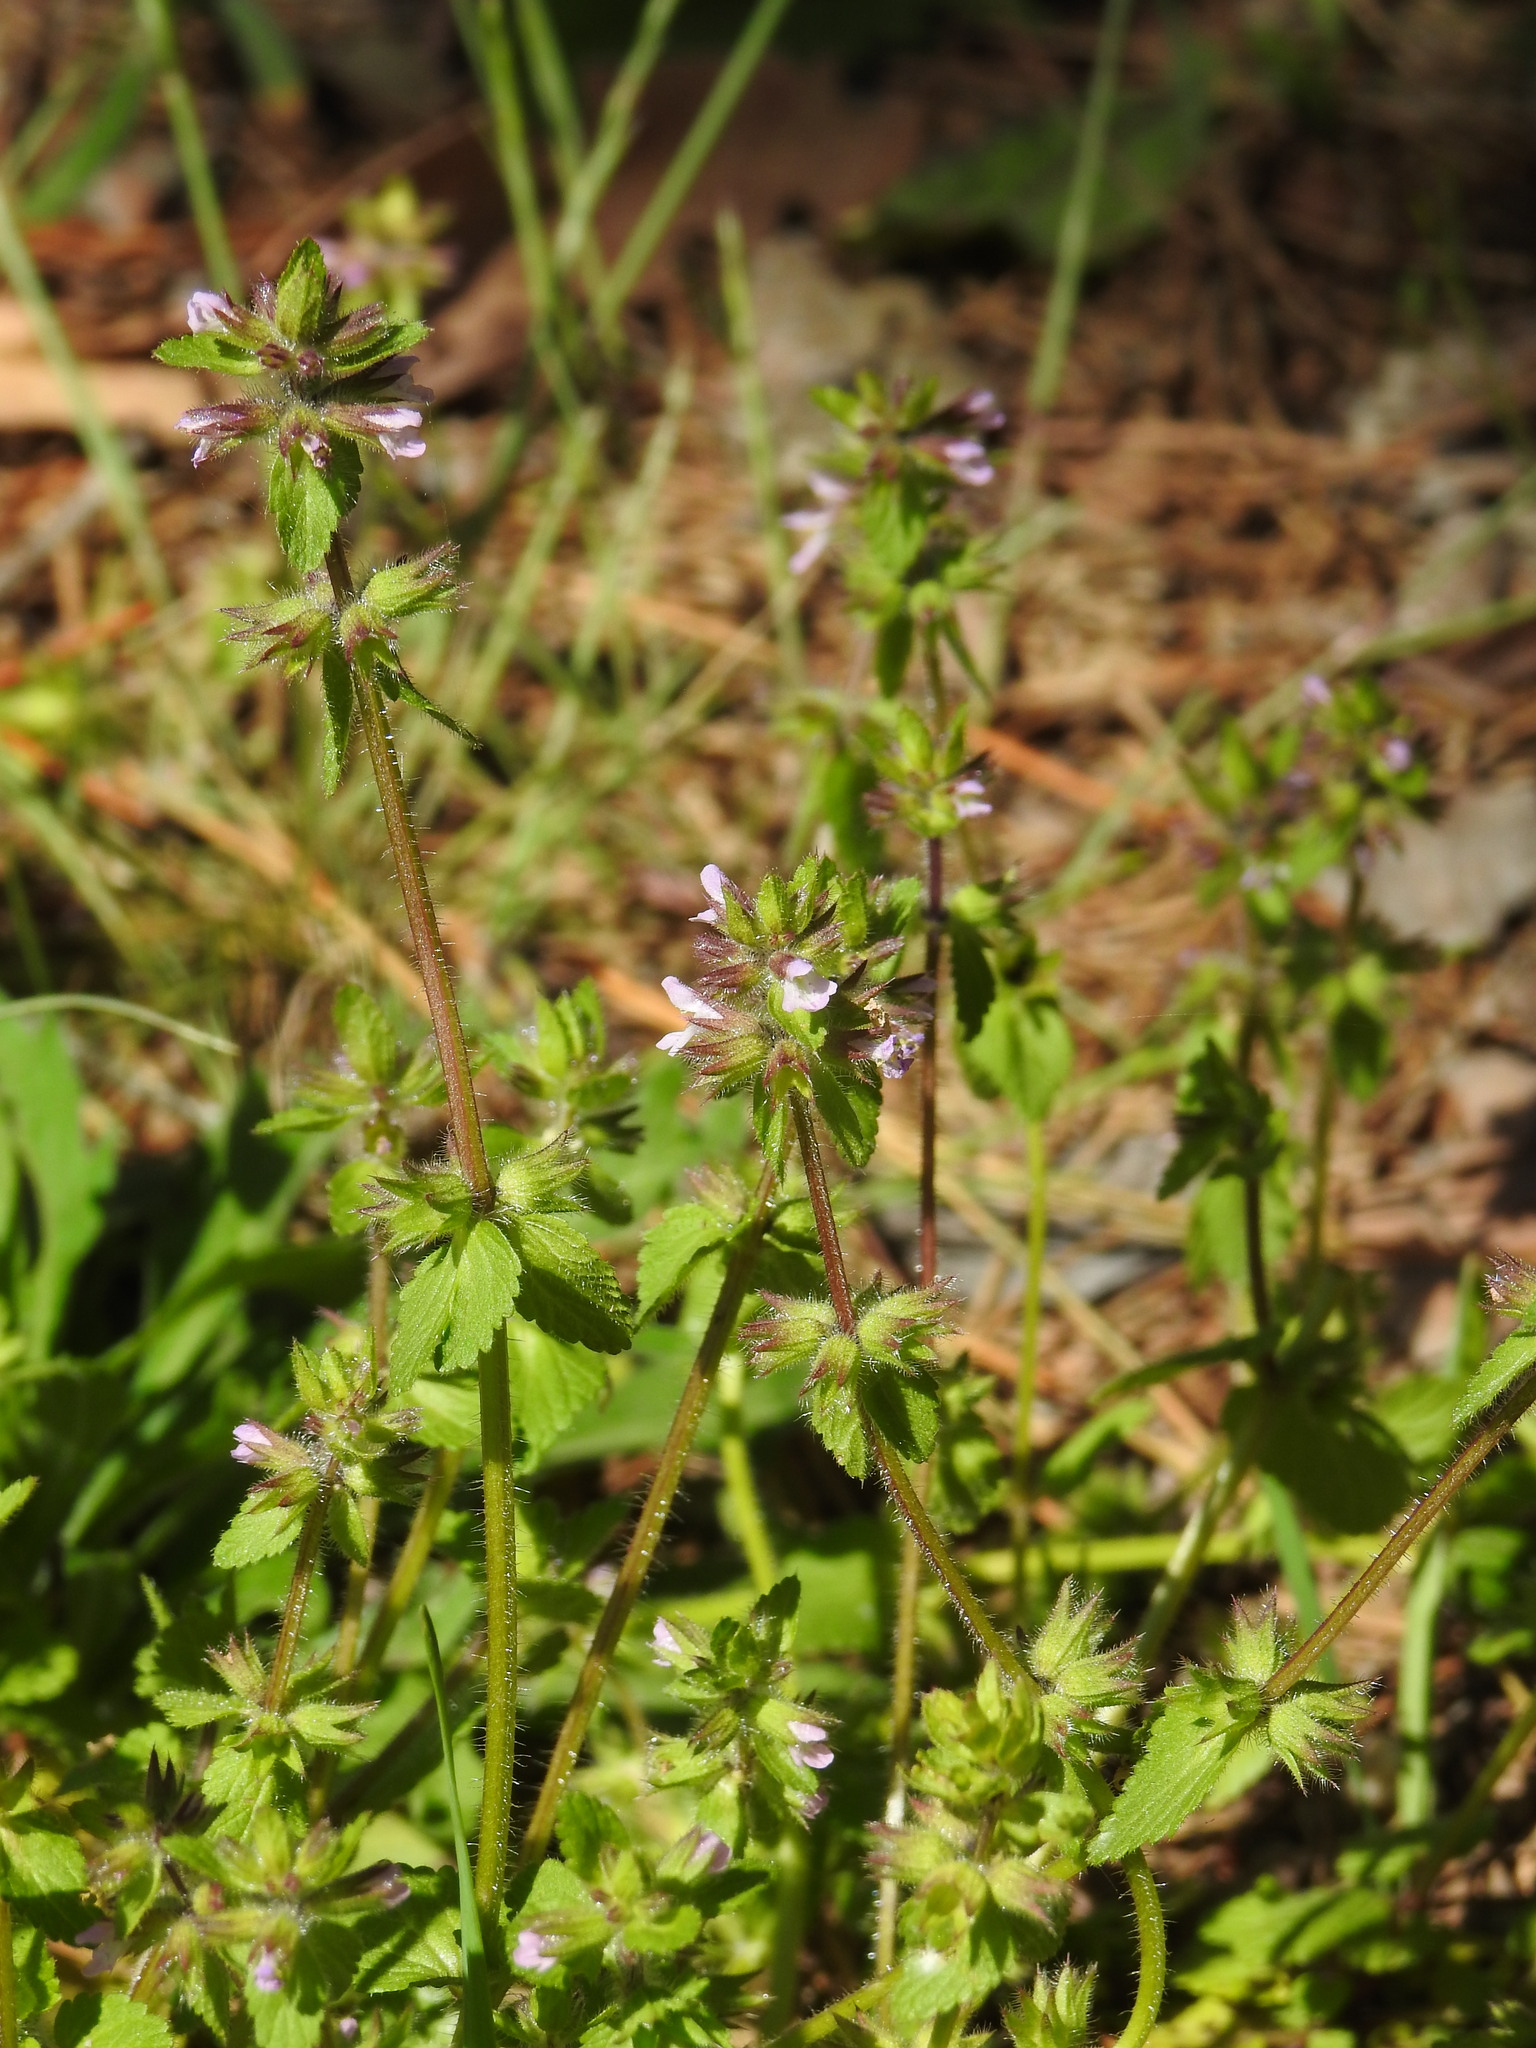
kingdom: Plantae
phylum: Tracheophyta
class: Magnoliopsida
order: Lamiales
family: Lamiaceae
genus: Stachys
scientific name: Stachys arvensis
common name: Field woundwort
